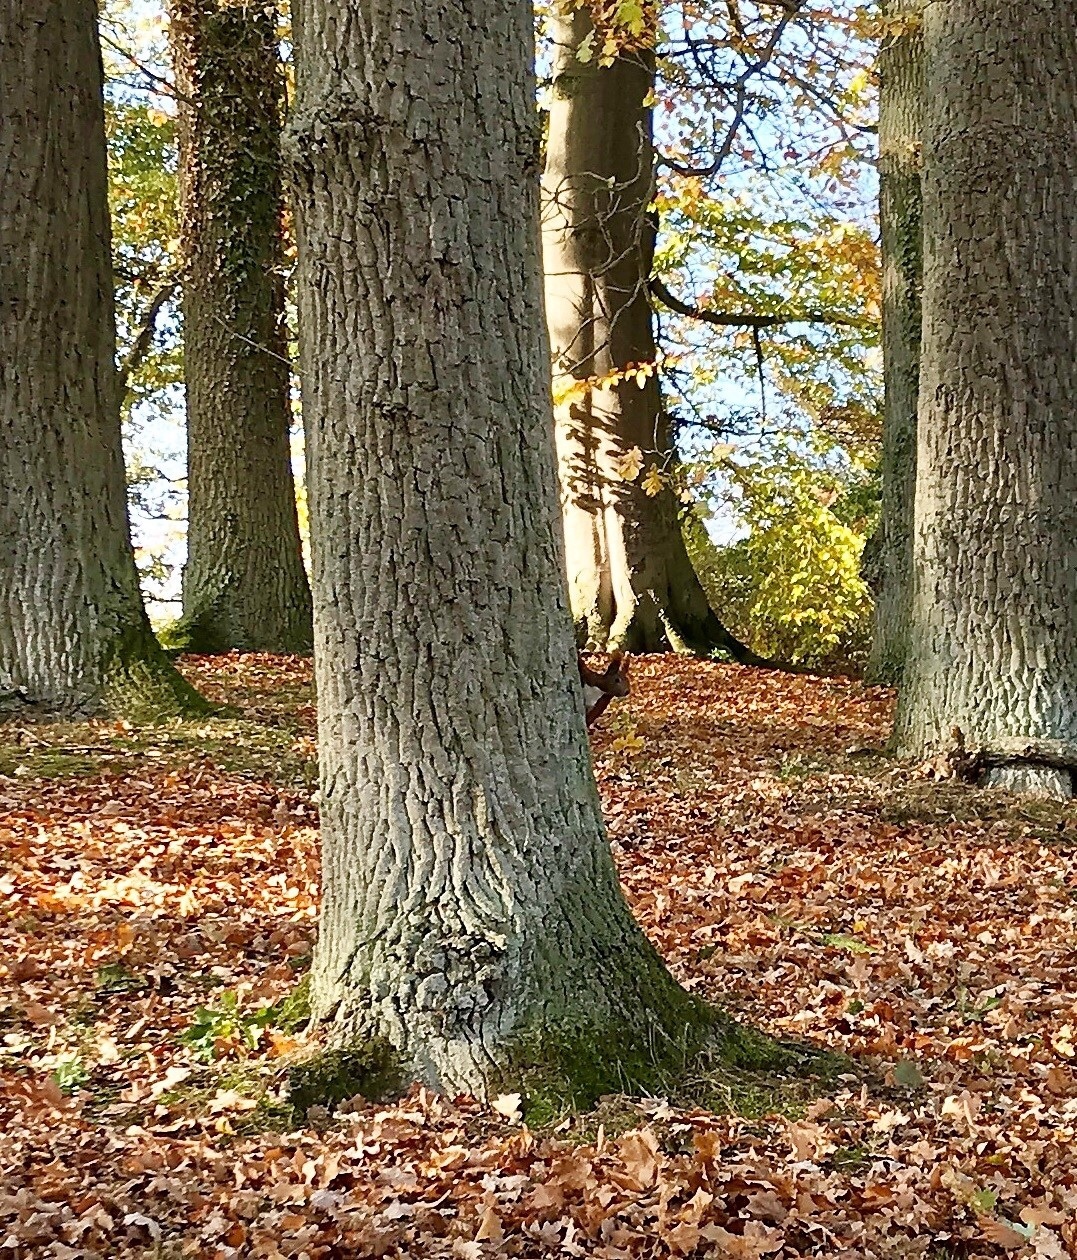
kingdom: Animalia
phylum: Chordata
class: Mammalia
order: Rodentia
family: Sciuridae
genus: Sciurus
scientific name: Sciurus vulgaris
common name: Eurasian red squirrel
